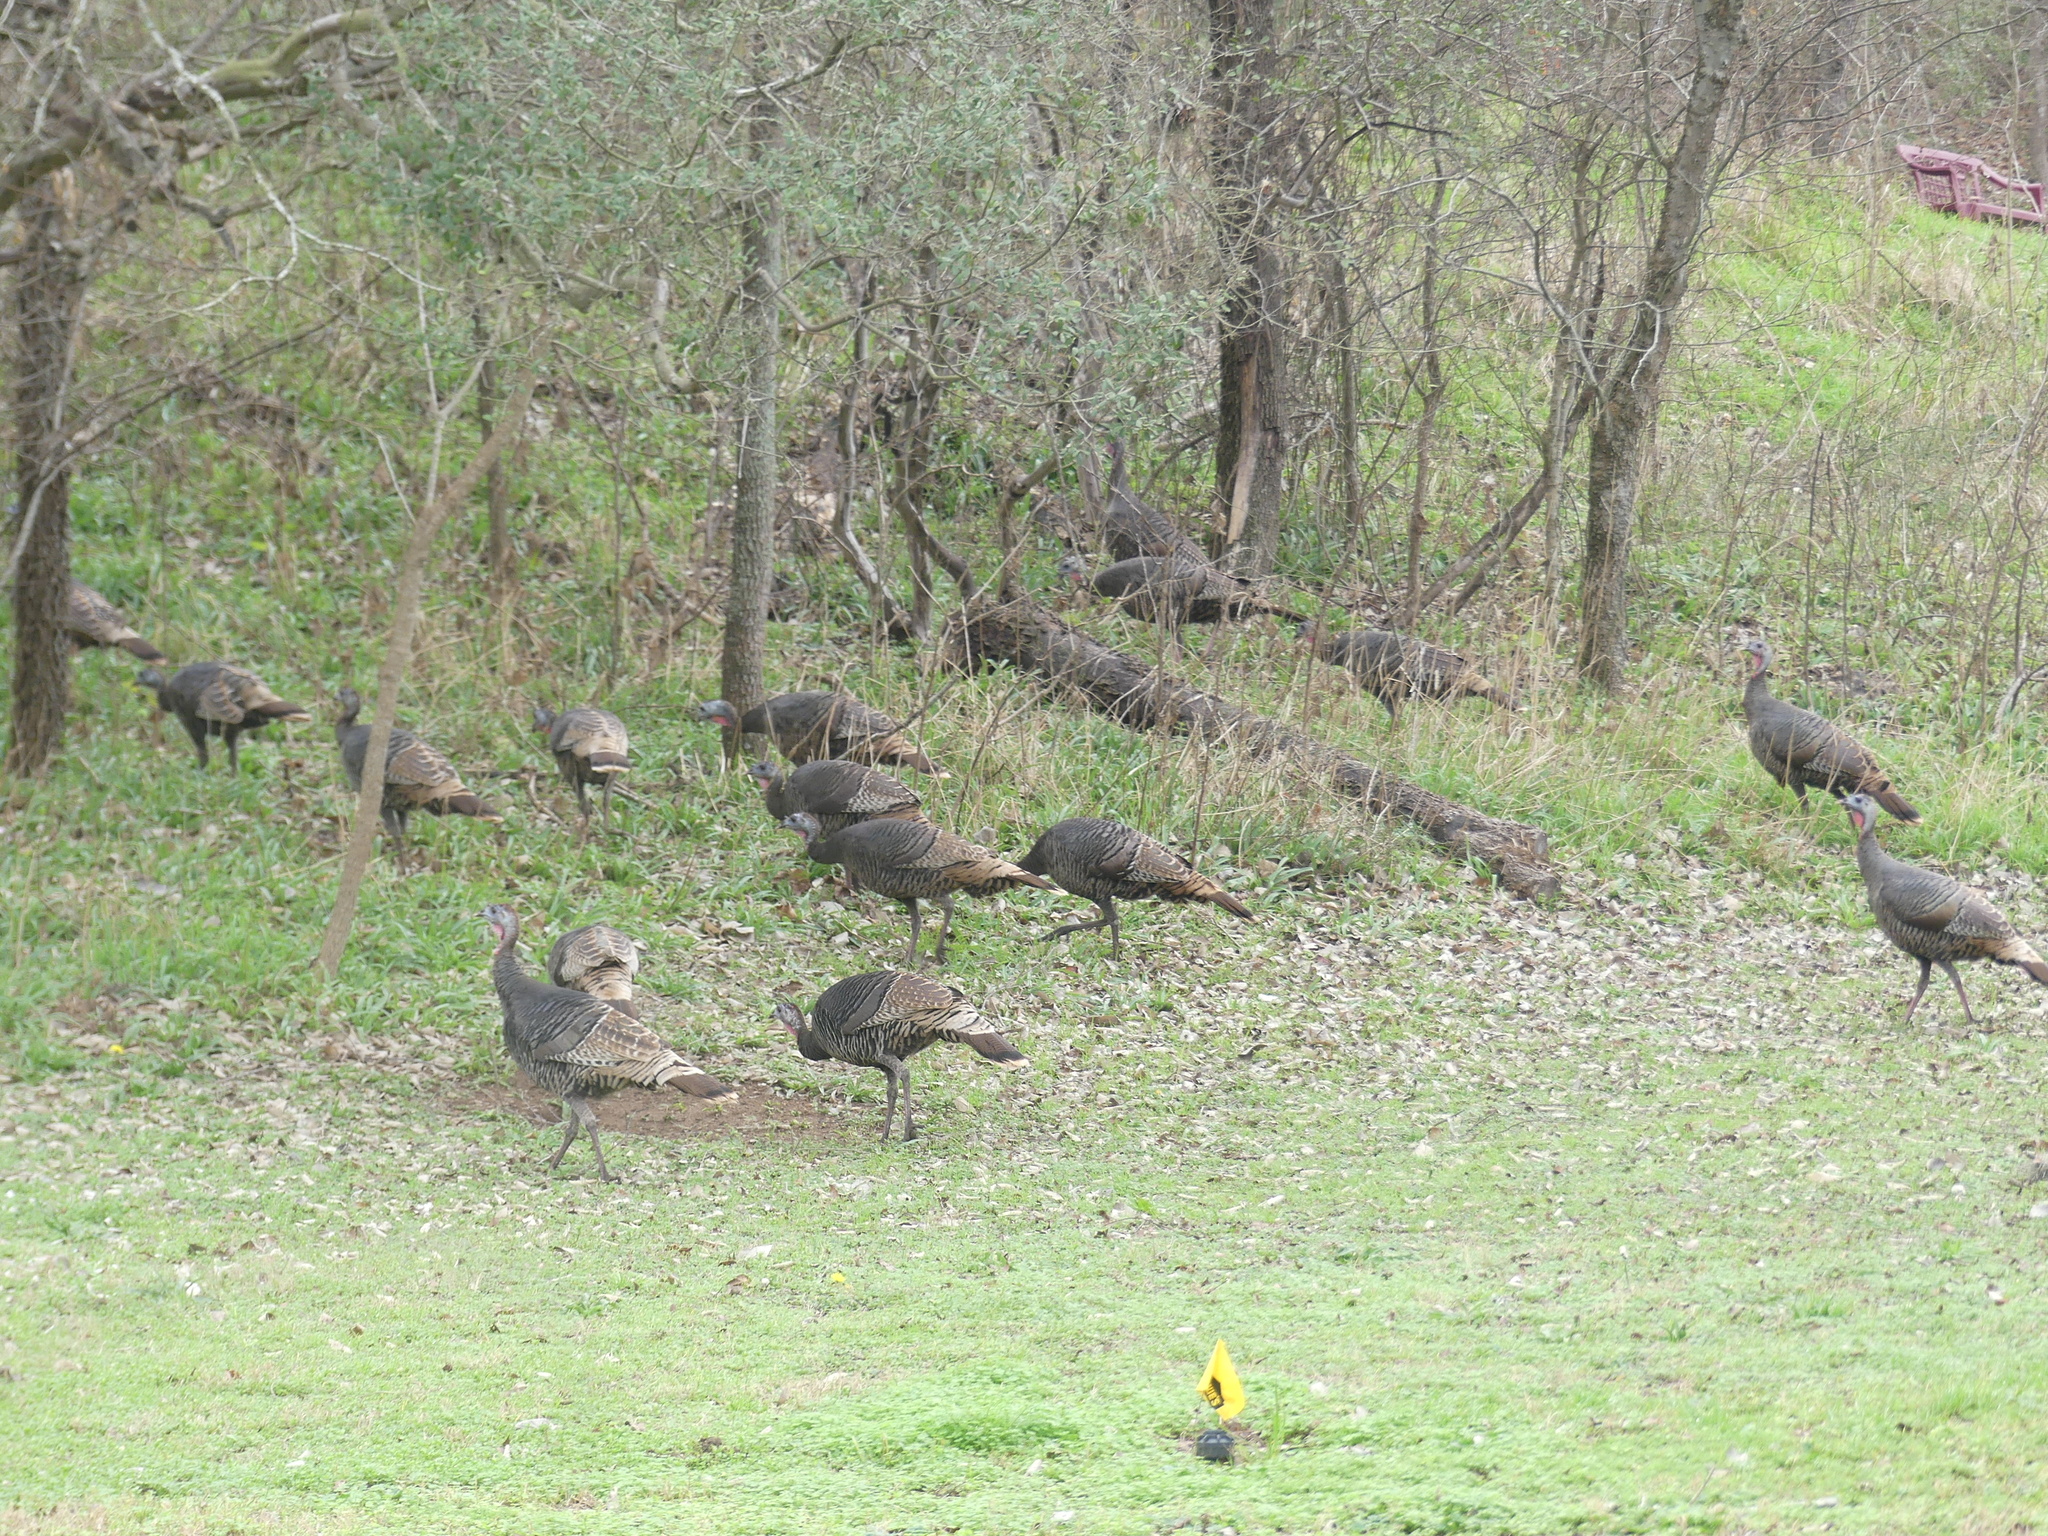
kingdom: Animalia
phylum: Chordata
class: Aves
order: Galliformes
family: Phasianidae
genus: Meleagris
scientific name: Meleagris gallopavo
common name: Wild turkey
